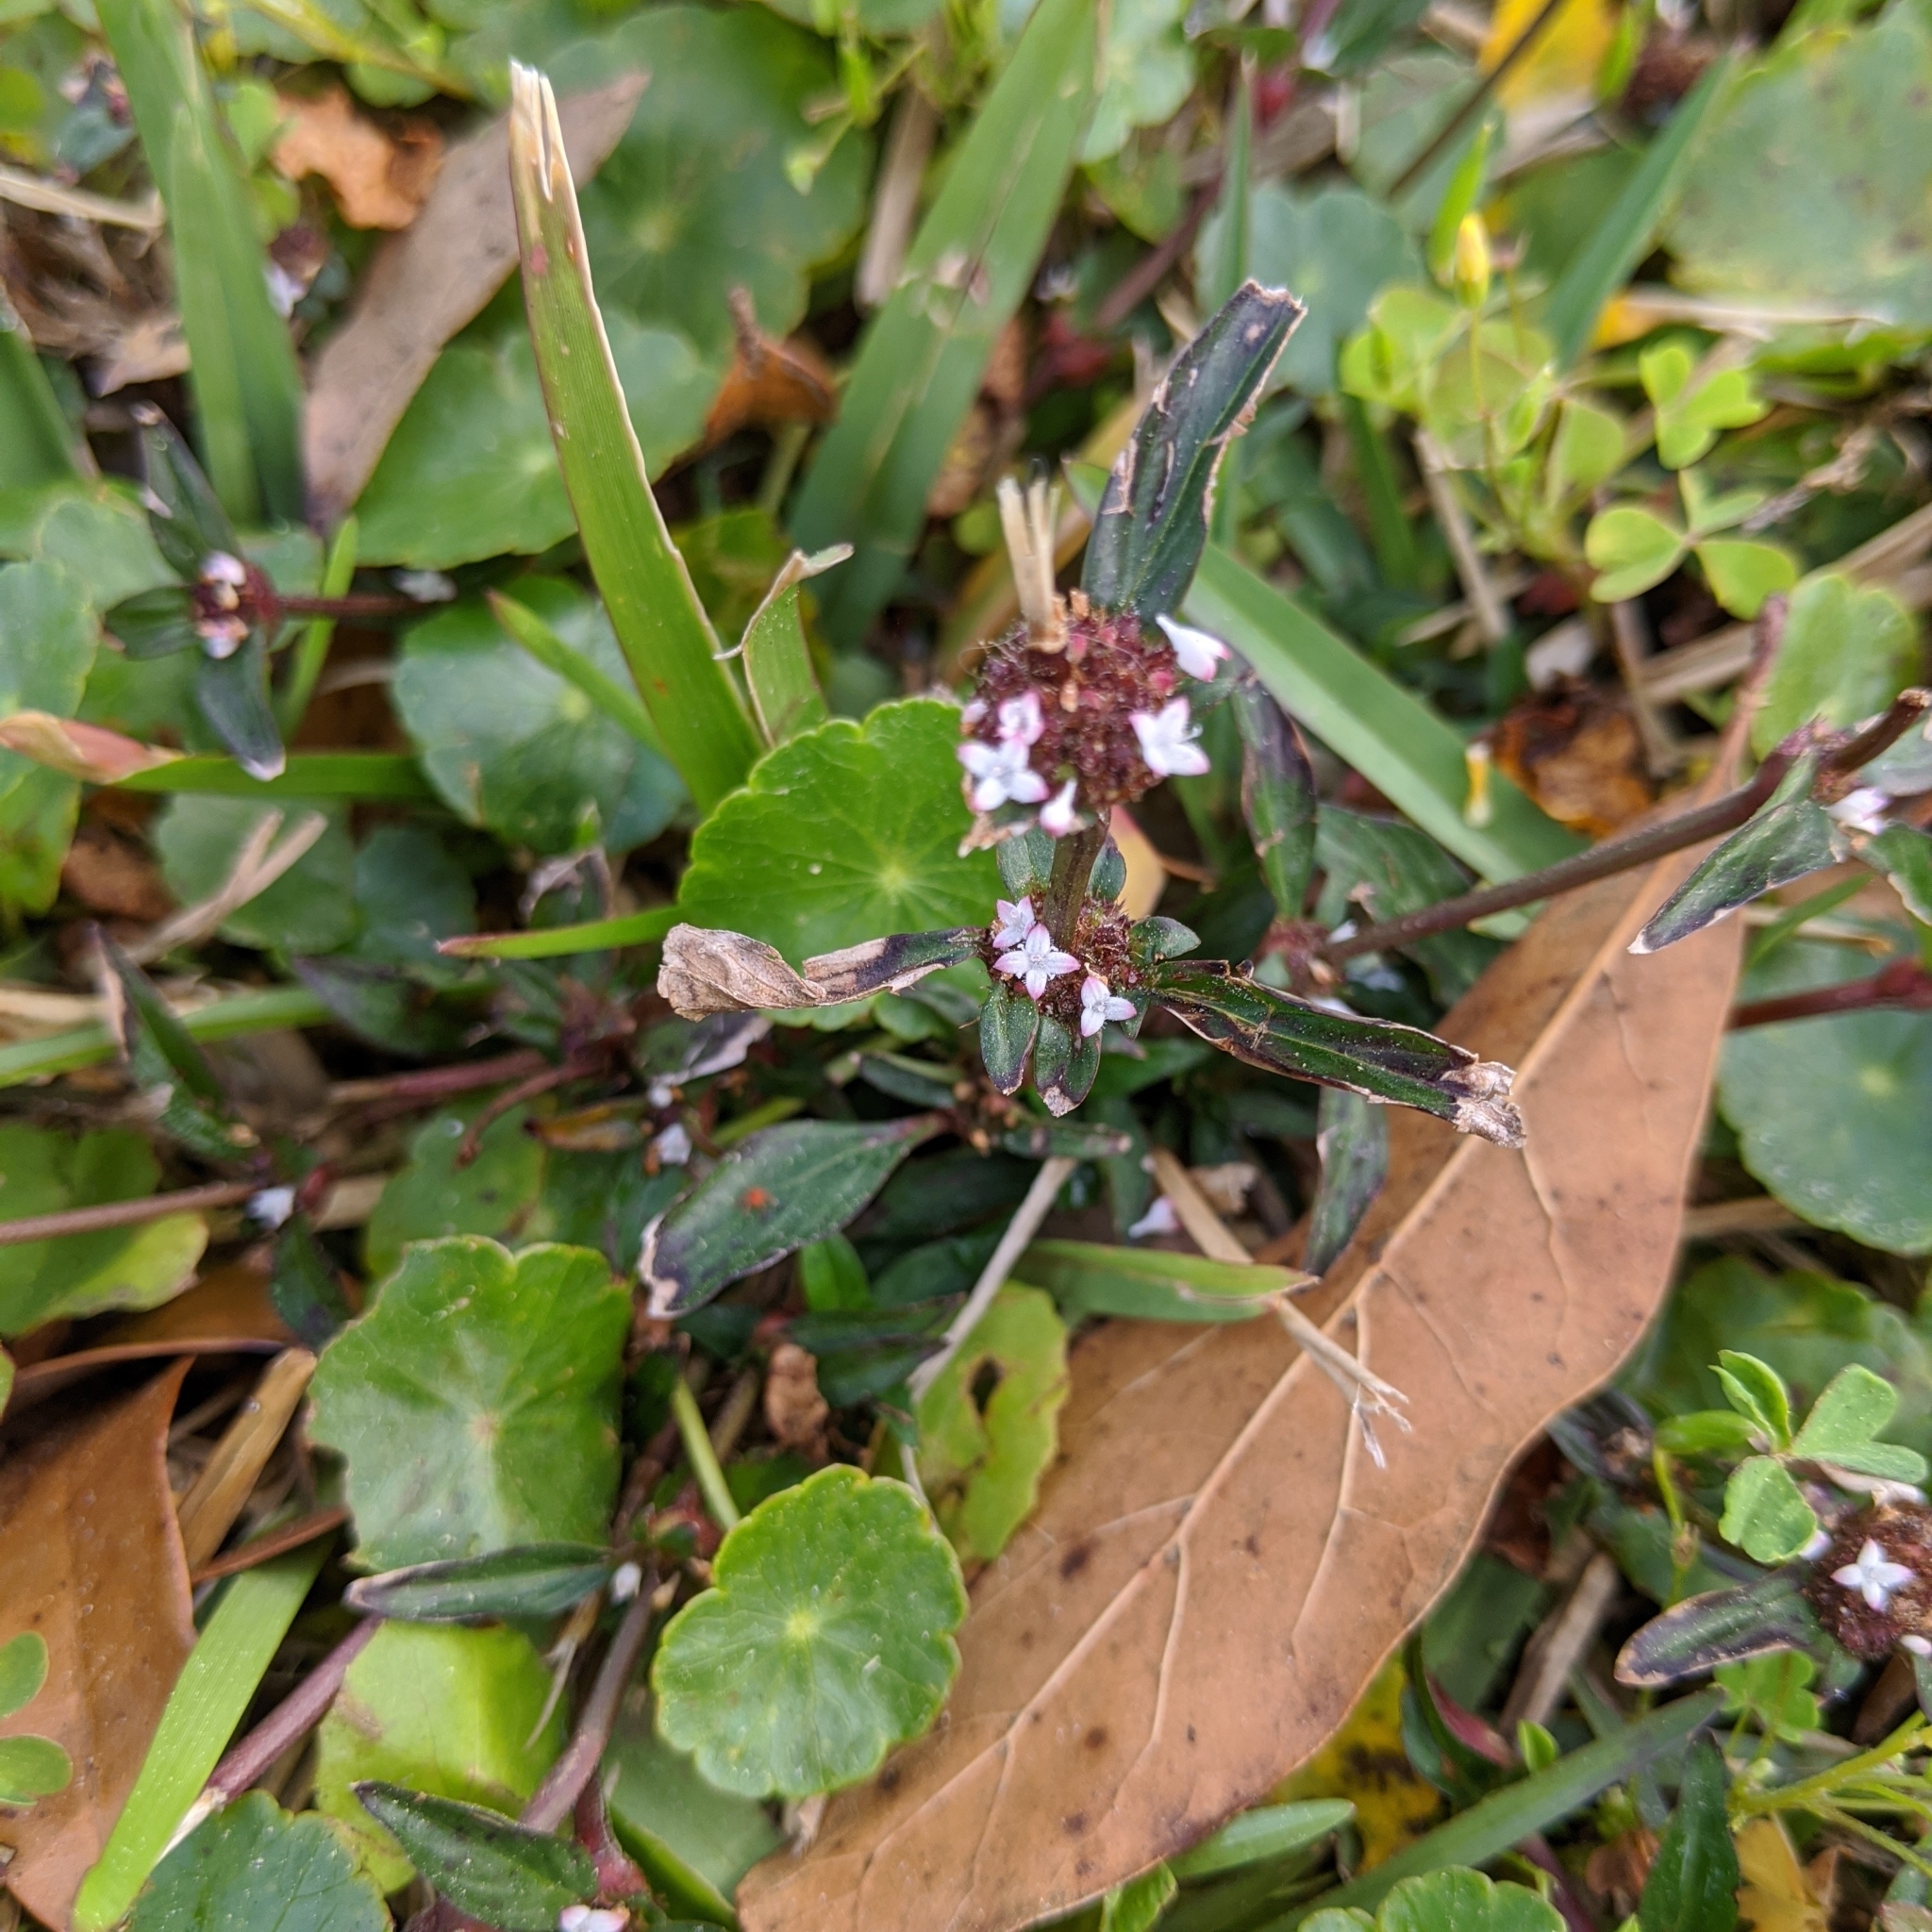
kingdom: Plantae
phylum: Tracheophyta
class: Magnoliopsida
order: Gentianales
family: Rubiaceae
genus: Spermacoce
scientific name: Spermacoce remota
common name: Woodland false buttonweed
